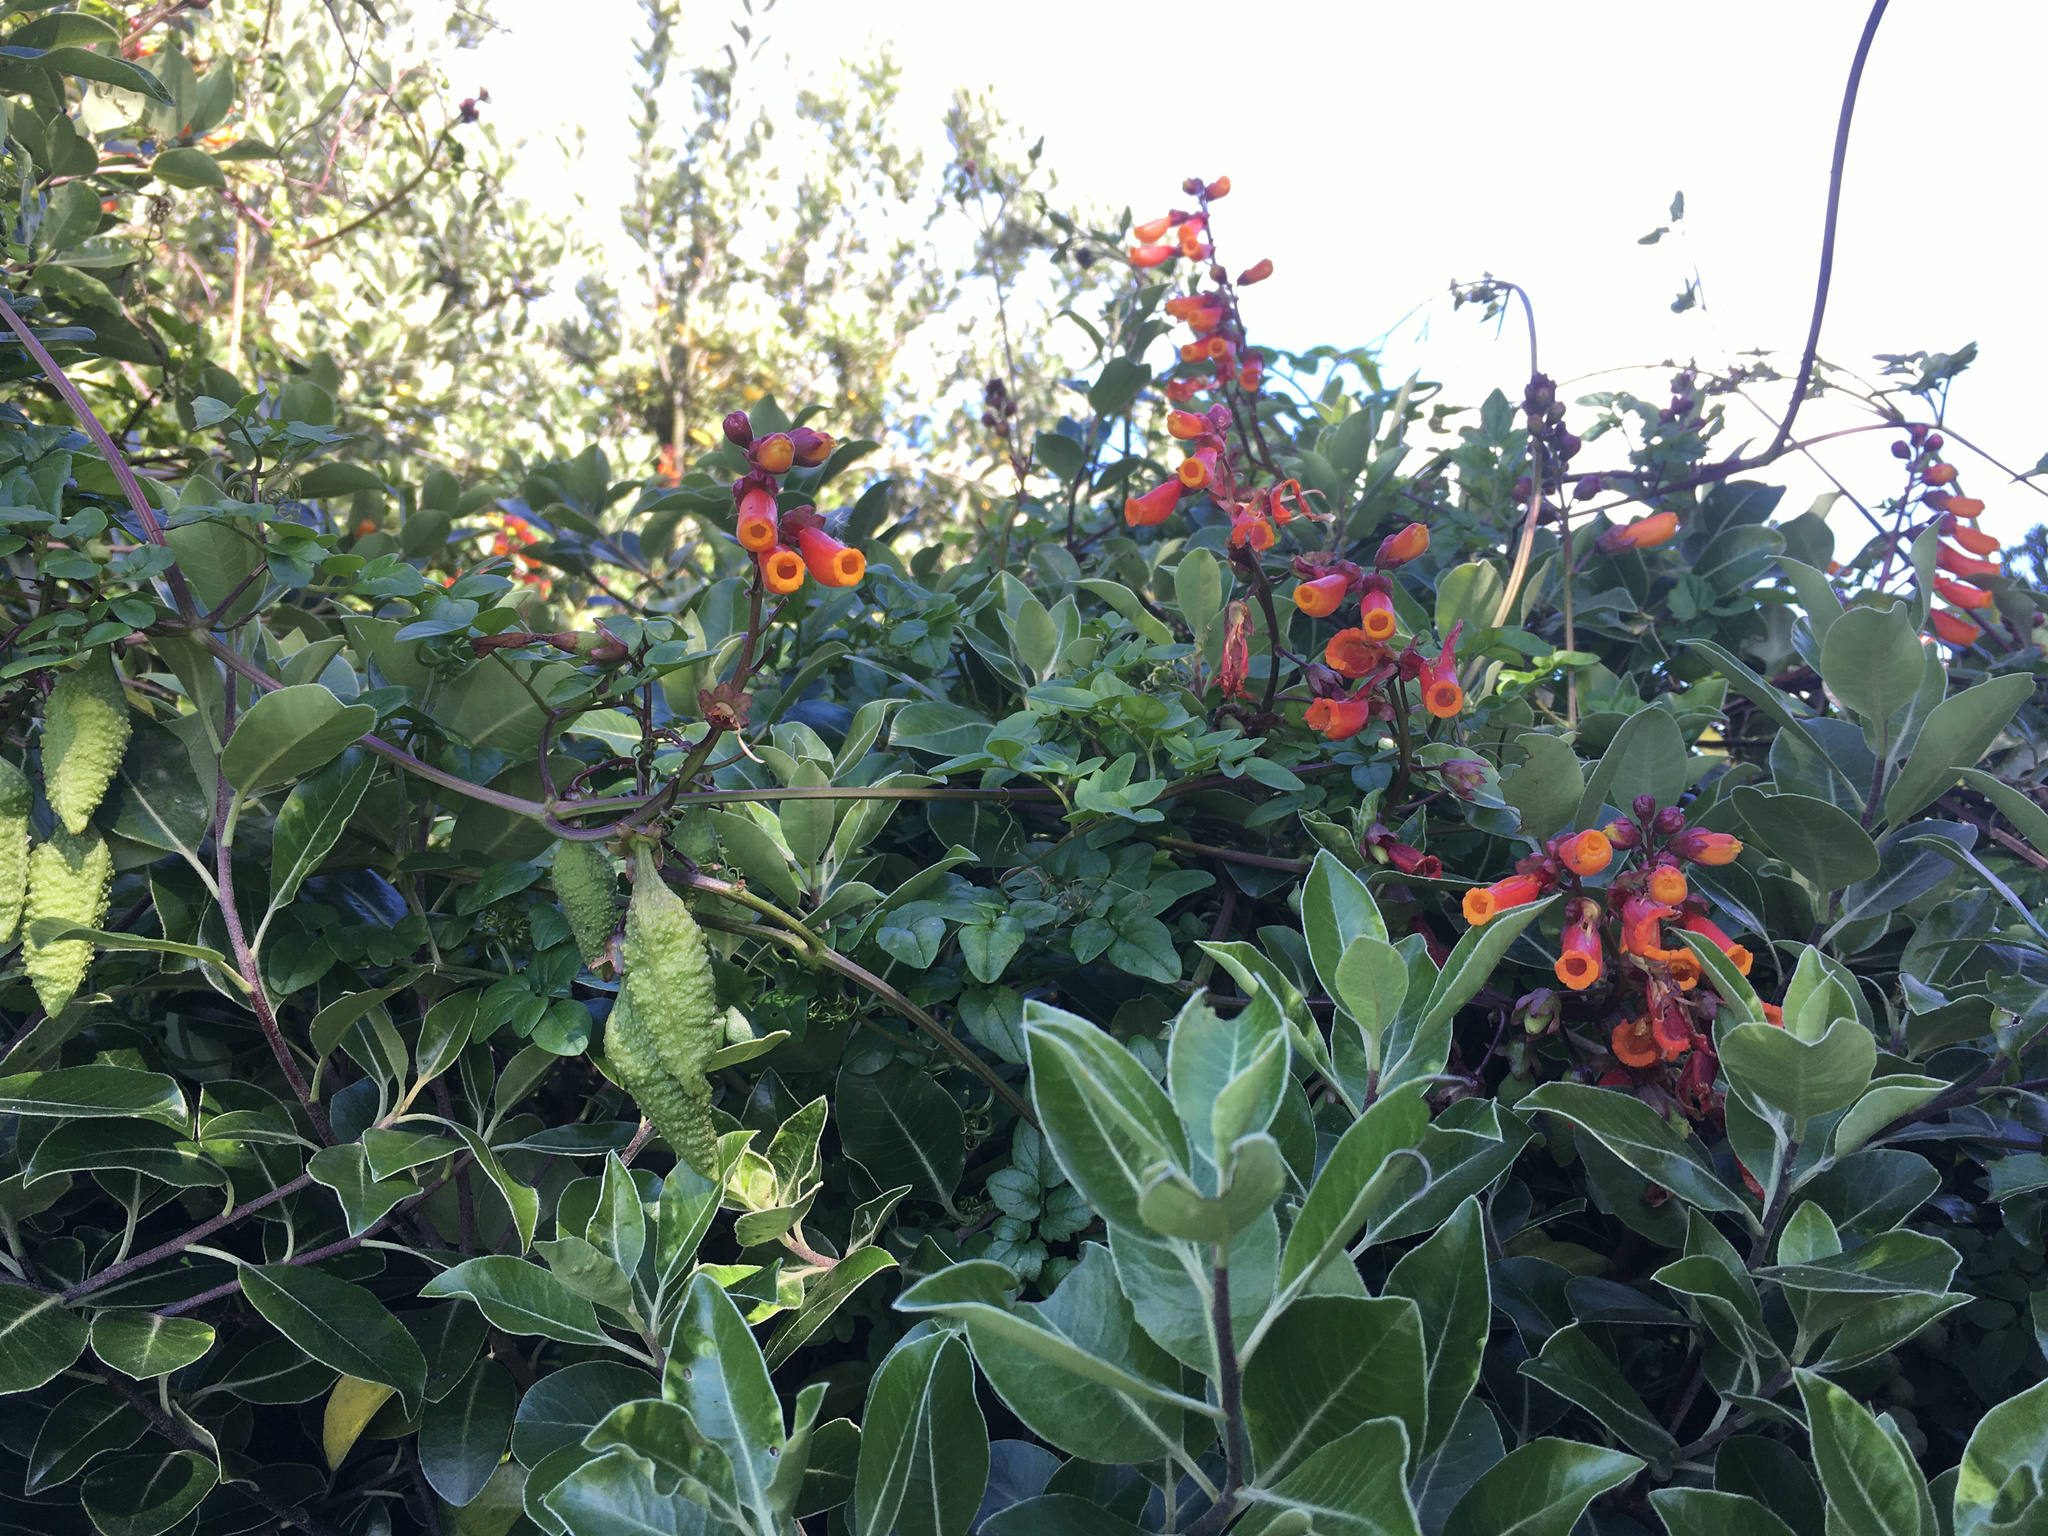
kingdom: Plantae
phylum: Tracheophyta
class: Magnoliopsida
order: Lamiales
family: Bignoniaceae
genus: Eccremocarpus
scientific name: Eccremocarpus scaber
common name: Chilean glory-flower
